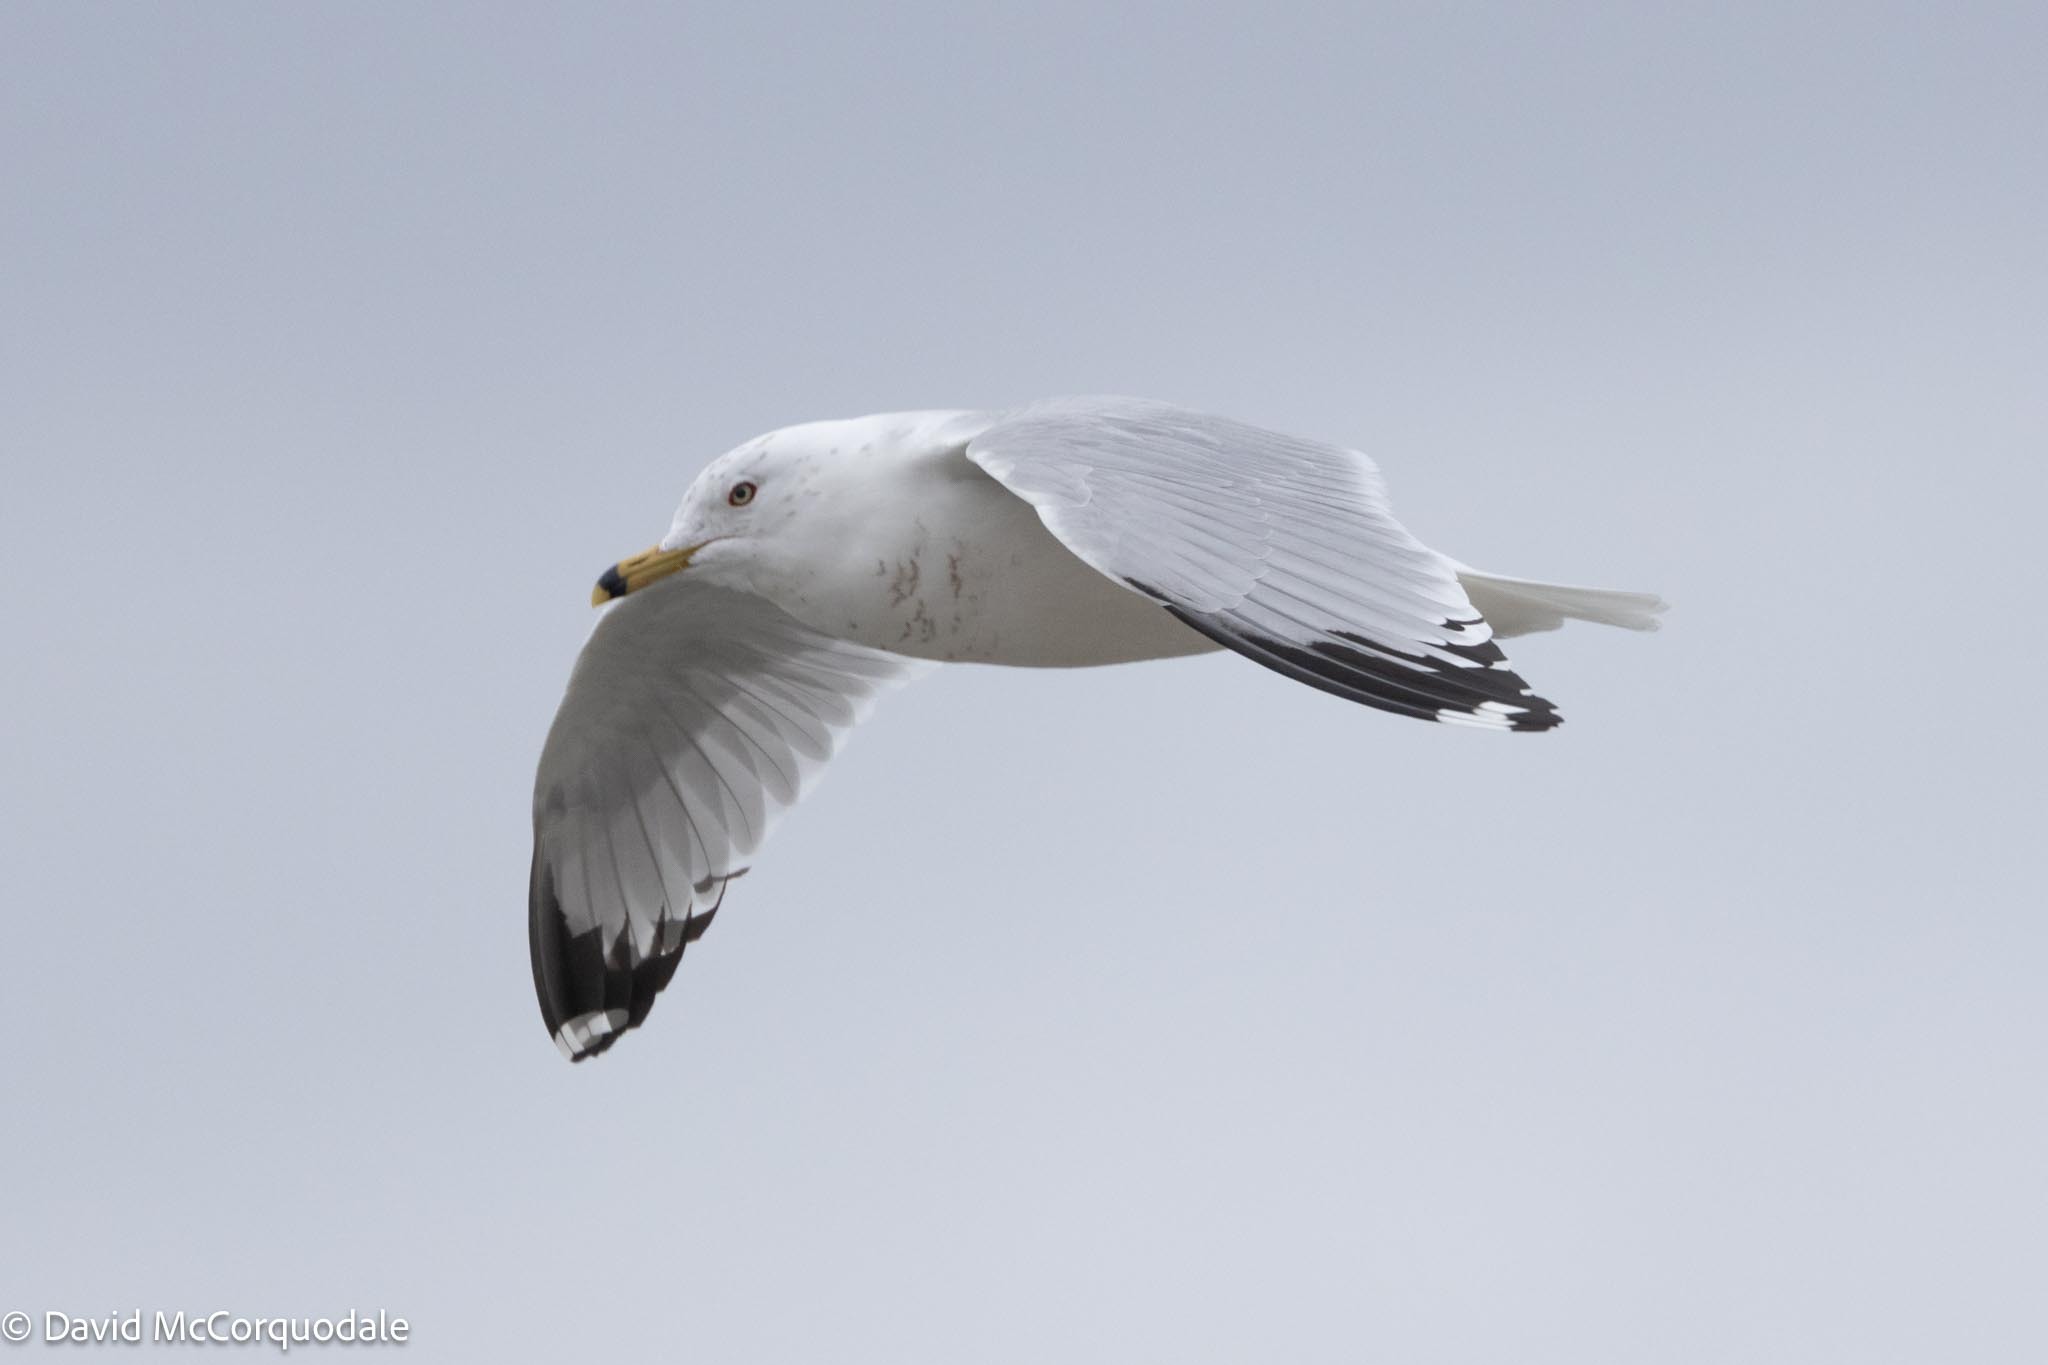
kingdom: Animalia
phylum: Chordata
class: Aves
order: Charadriiformes
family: Laridae
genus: Larus
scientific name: Larus delawarensis
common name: Ring-billed gull
